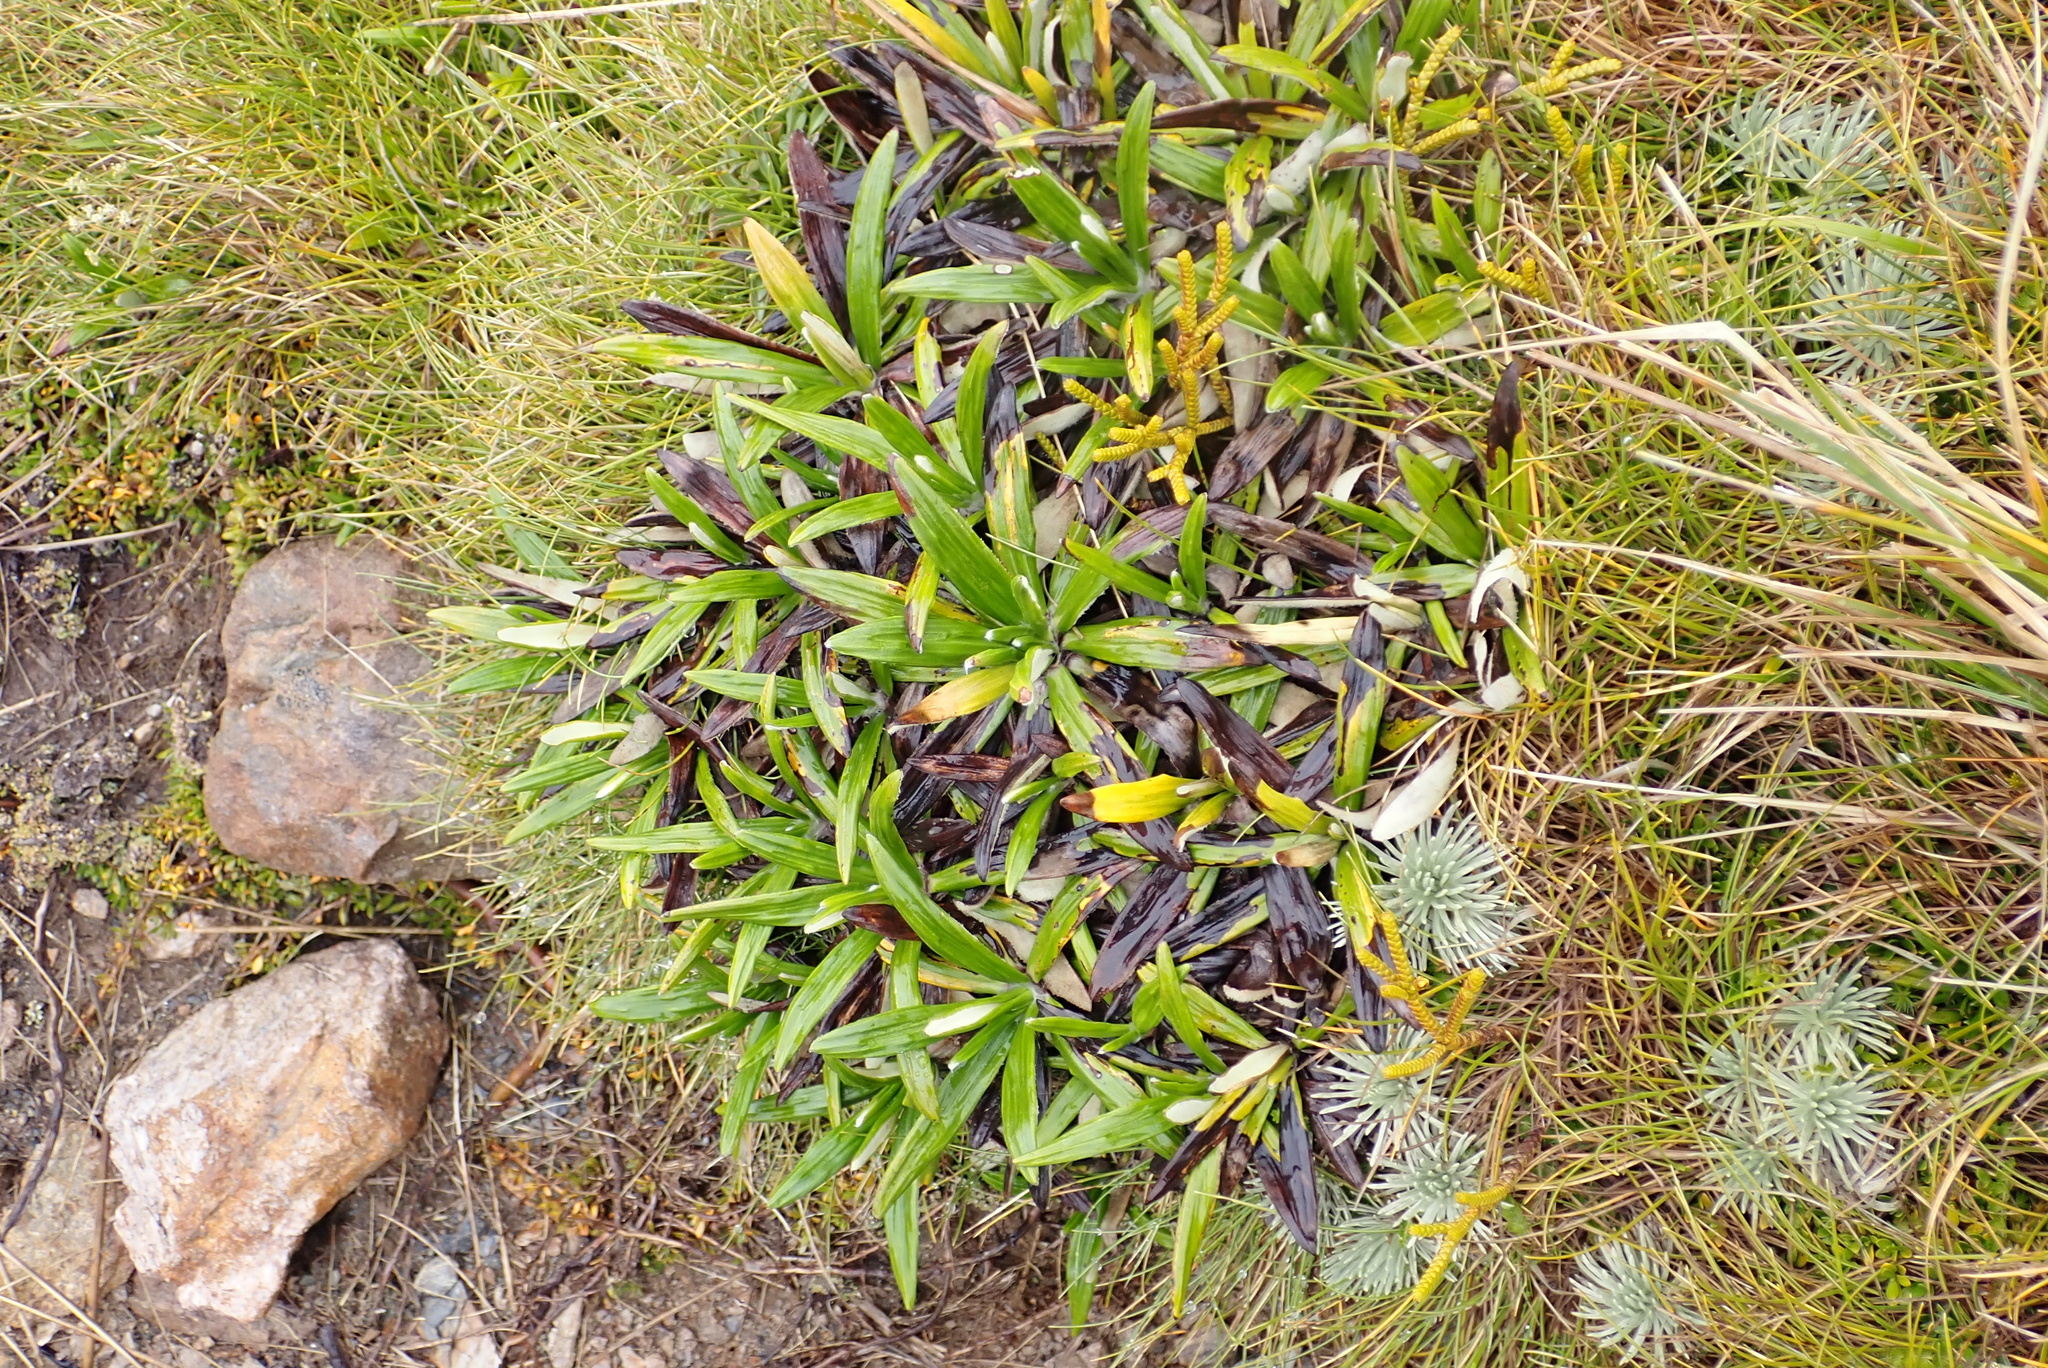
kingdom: Plantae
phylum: Tracheophyta
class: Magnoliopsida
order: Asterales
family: Asteraceae
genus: Celmisia
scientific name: Celmisia spectabilis
